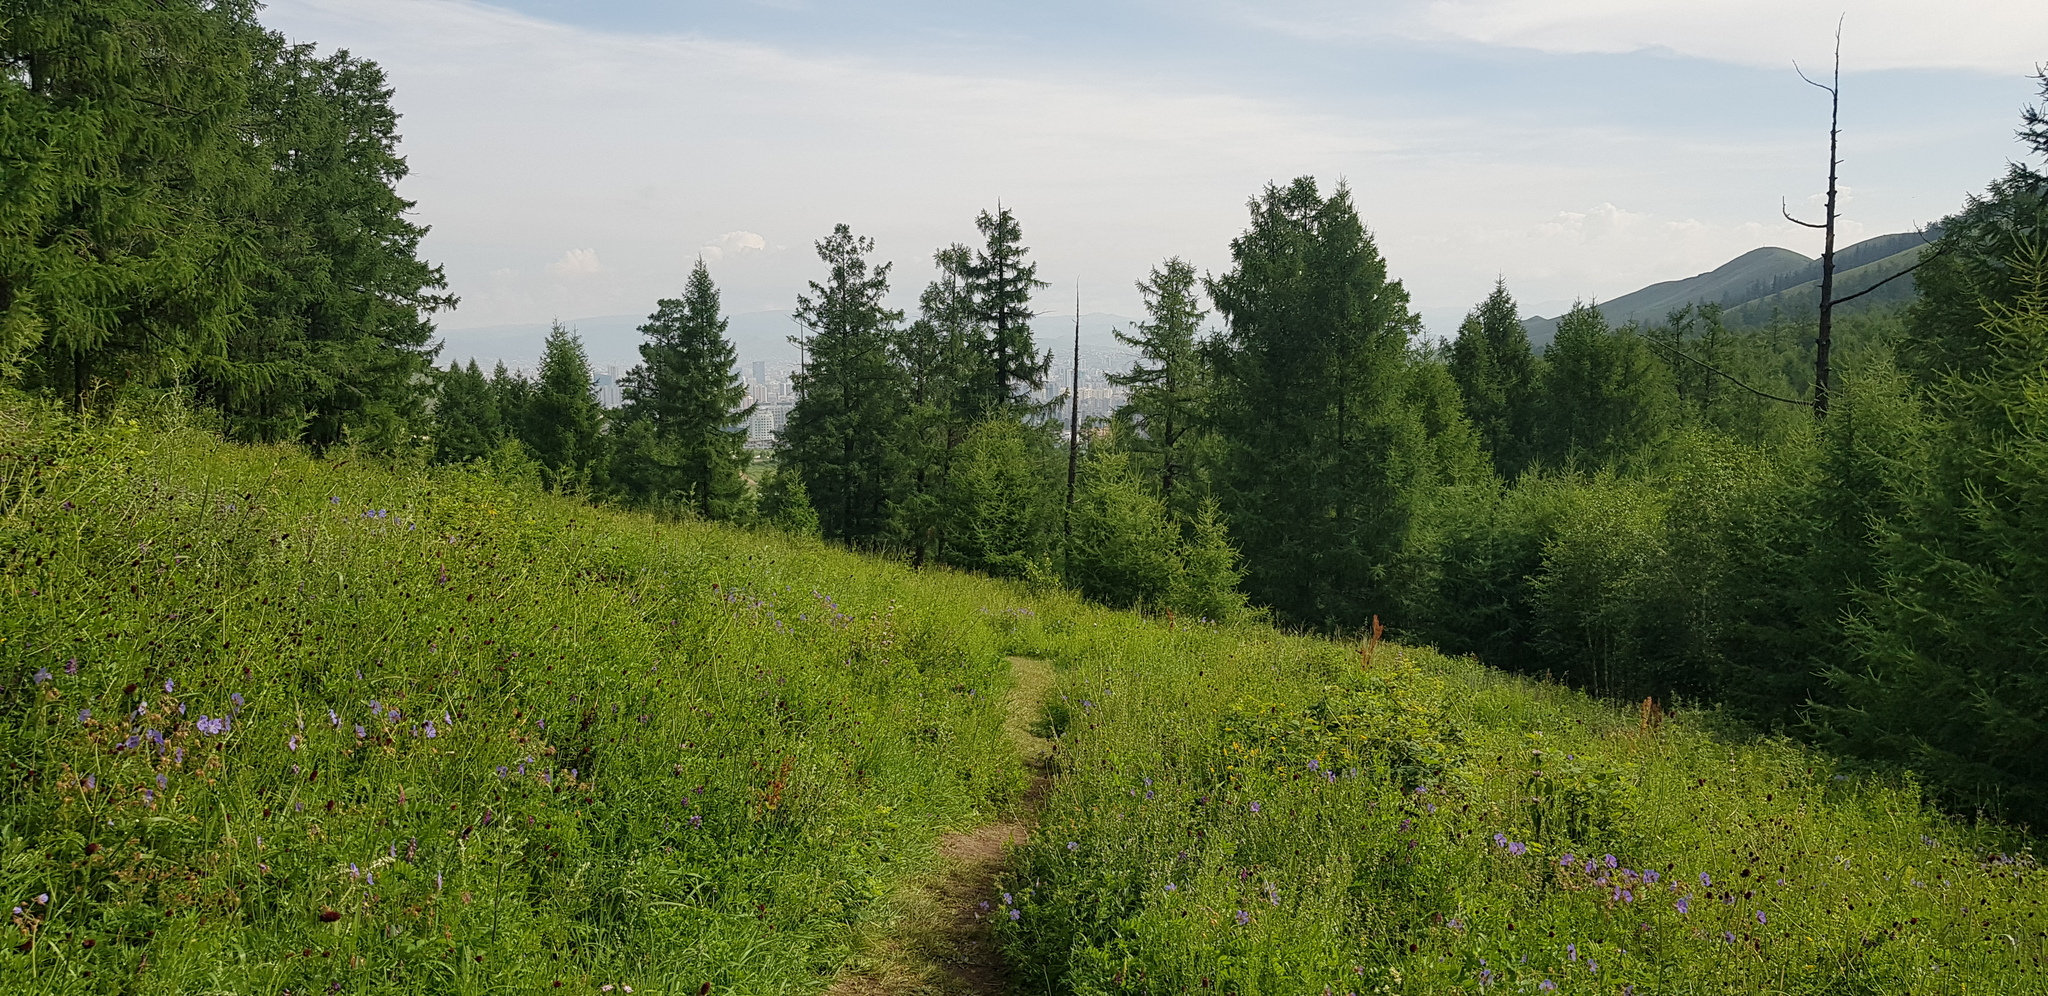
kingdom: Plantae
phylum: Tracheophyta
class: Pinopsida
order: Pinales
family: Pinaceae
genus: Larix
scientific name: Larix sibirica
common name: Siberian larch
